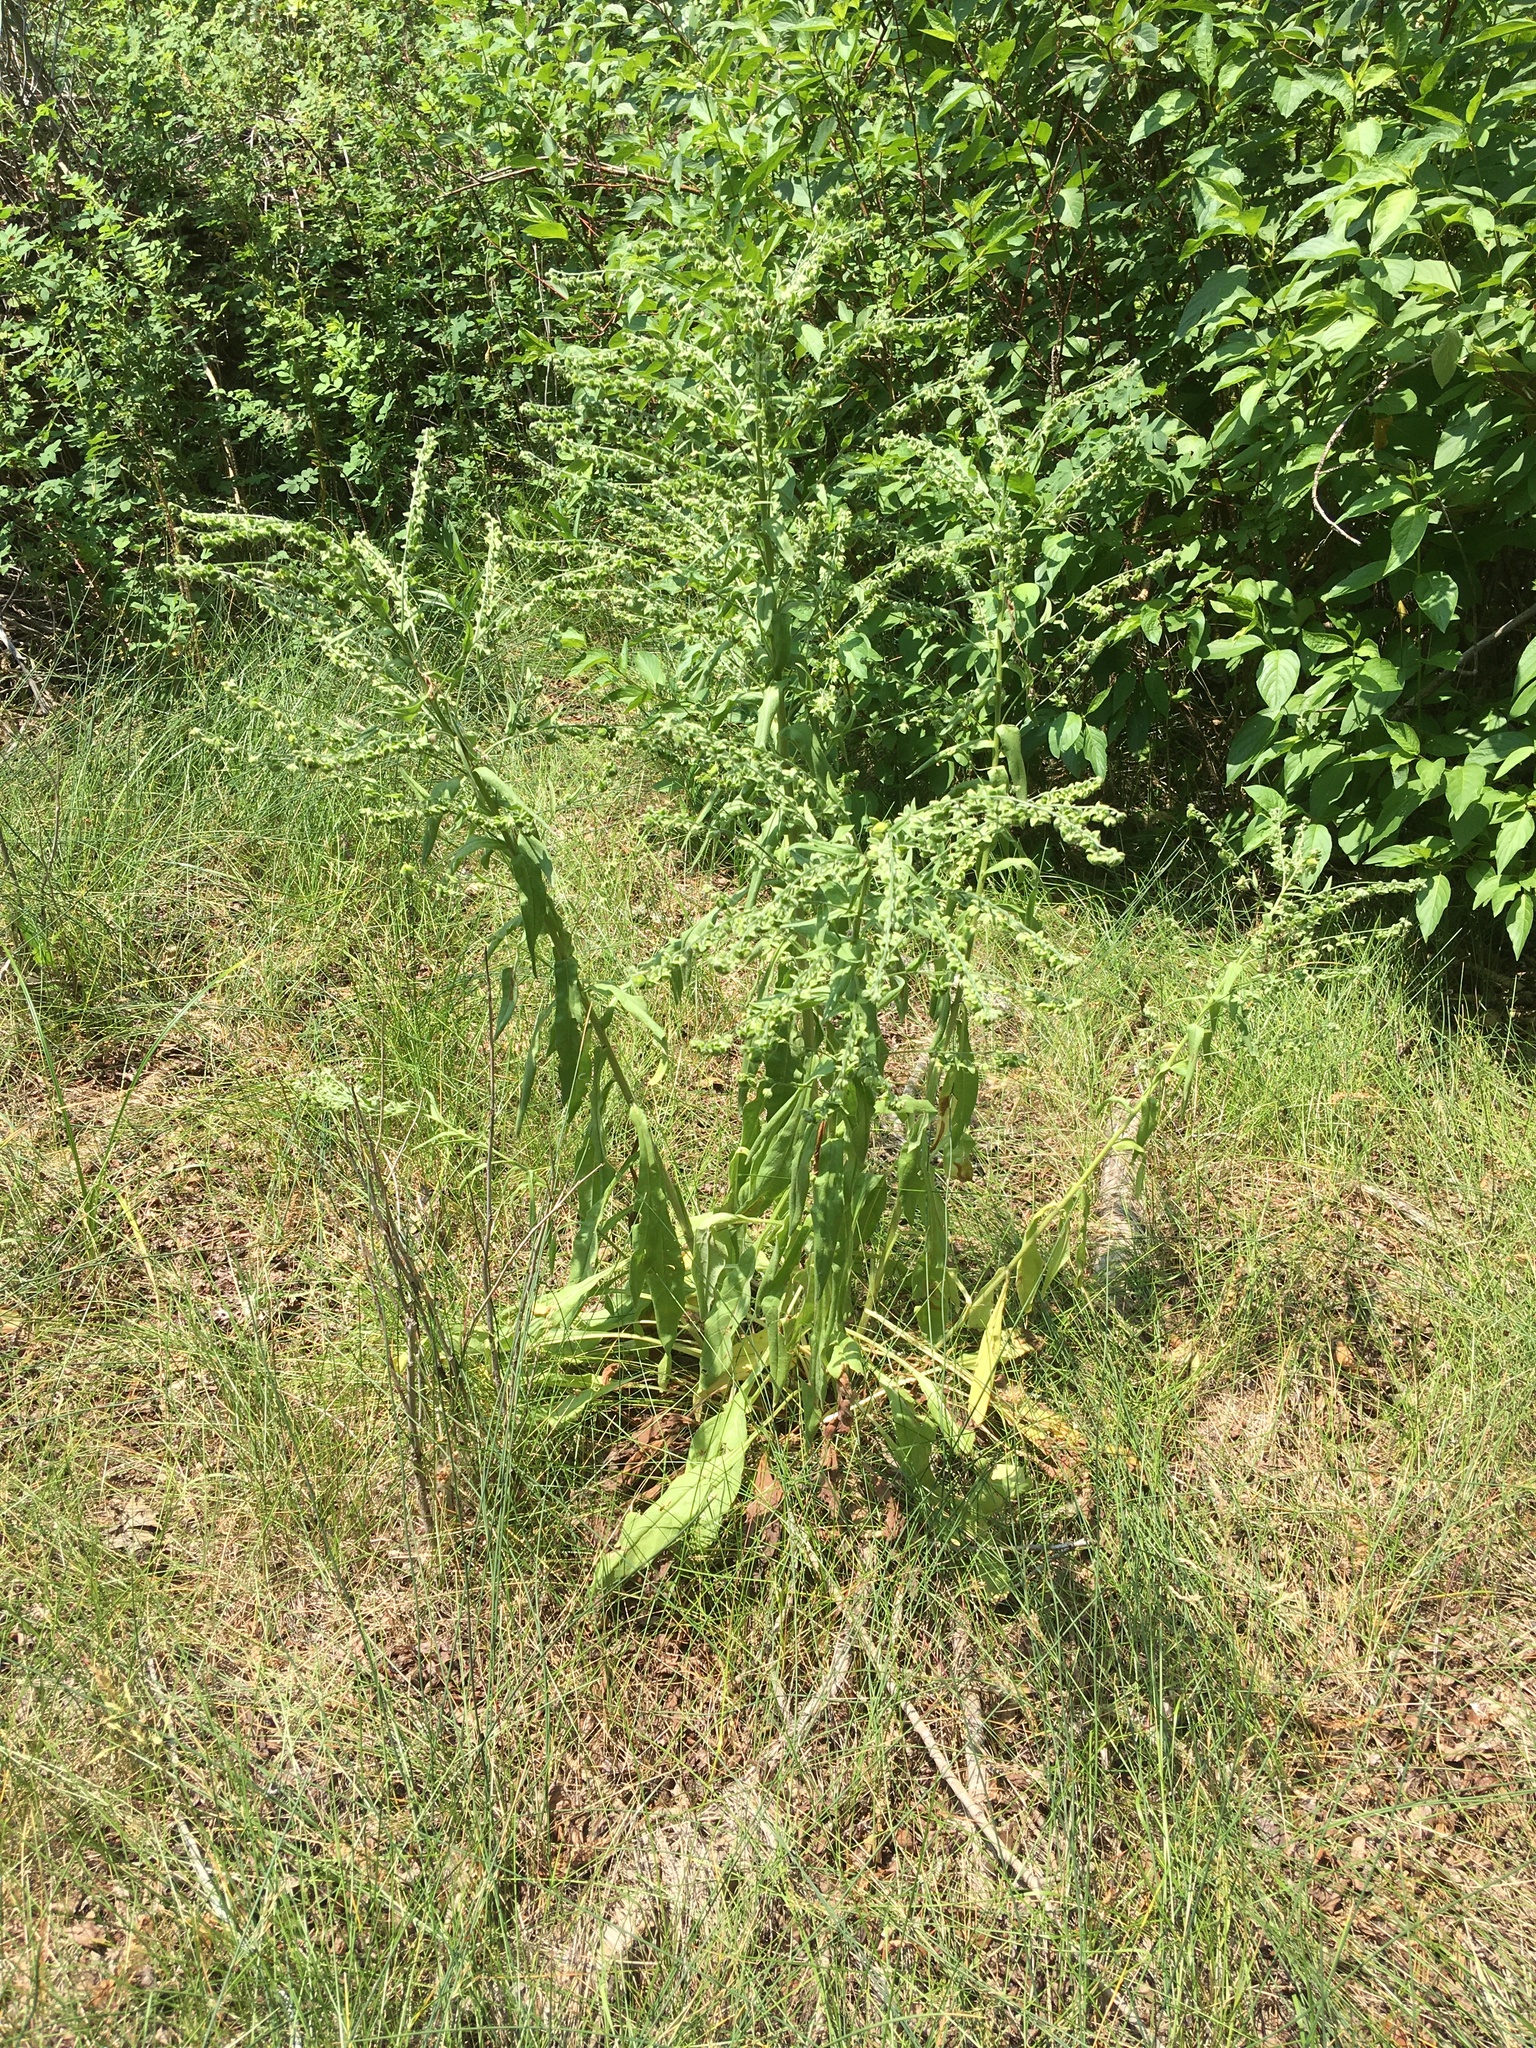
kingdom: Plantae
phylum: Tracheophyta
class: Magnoliopsida
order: Boraginales
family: Boraginaceae
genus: Cynoglossum
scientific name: Cynoglossum officinale
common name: Hound's-tongue
